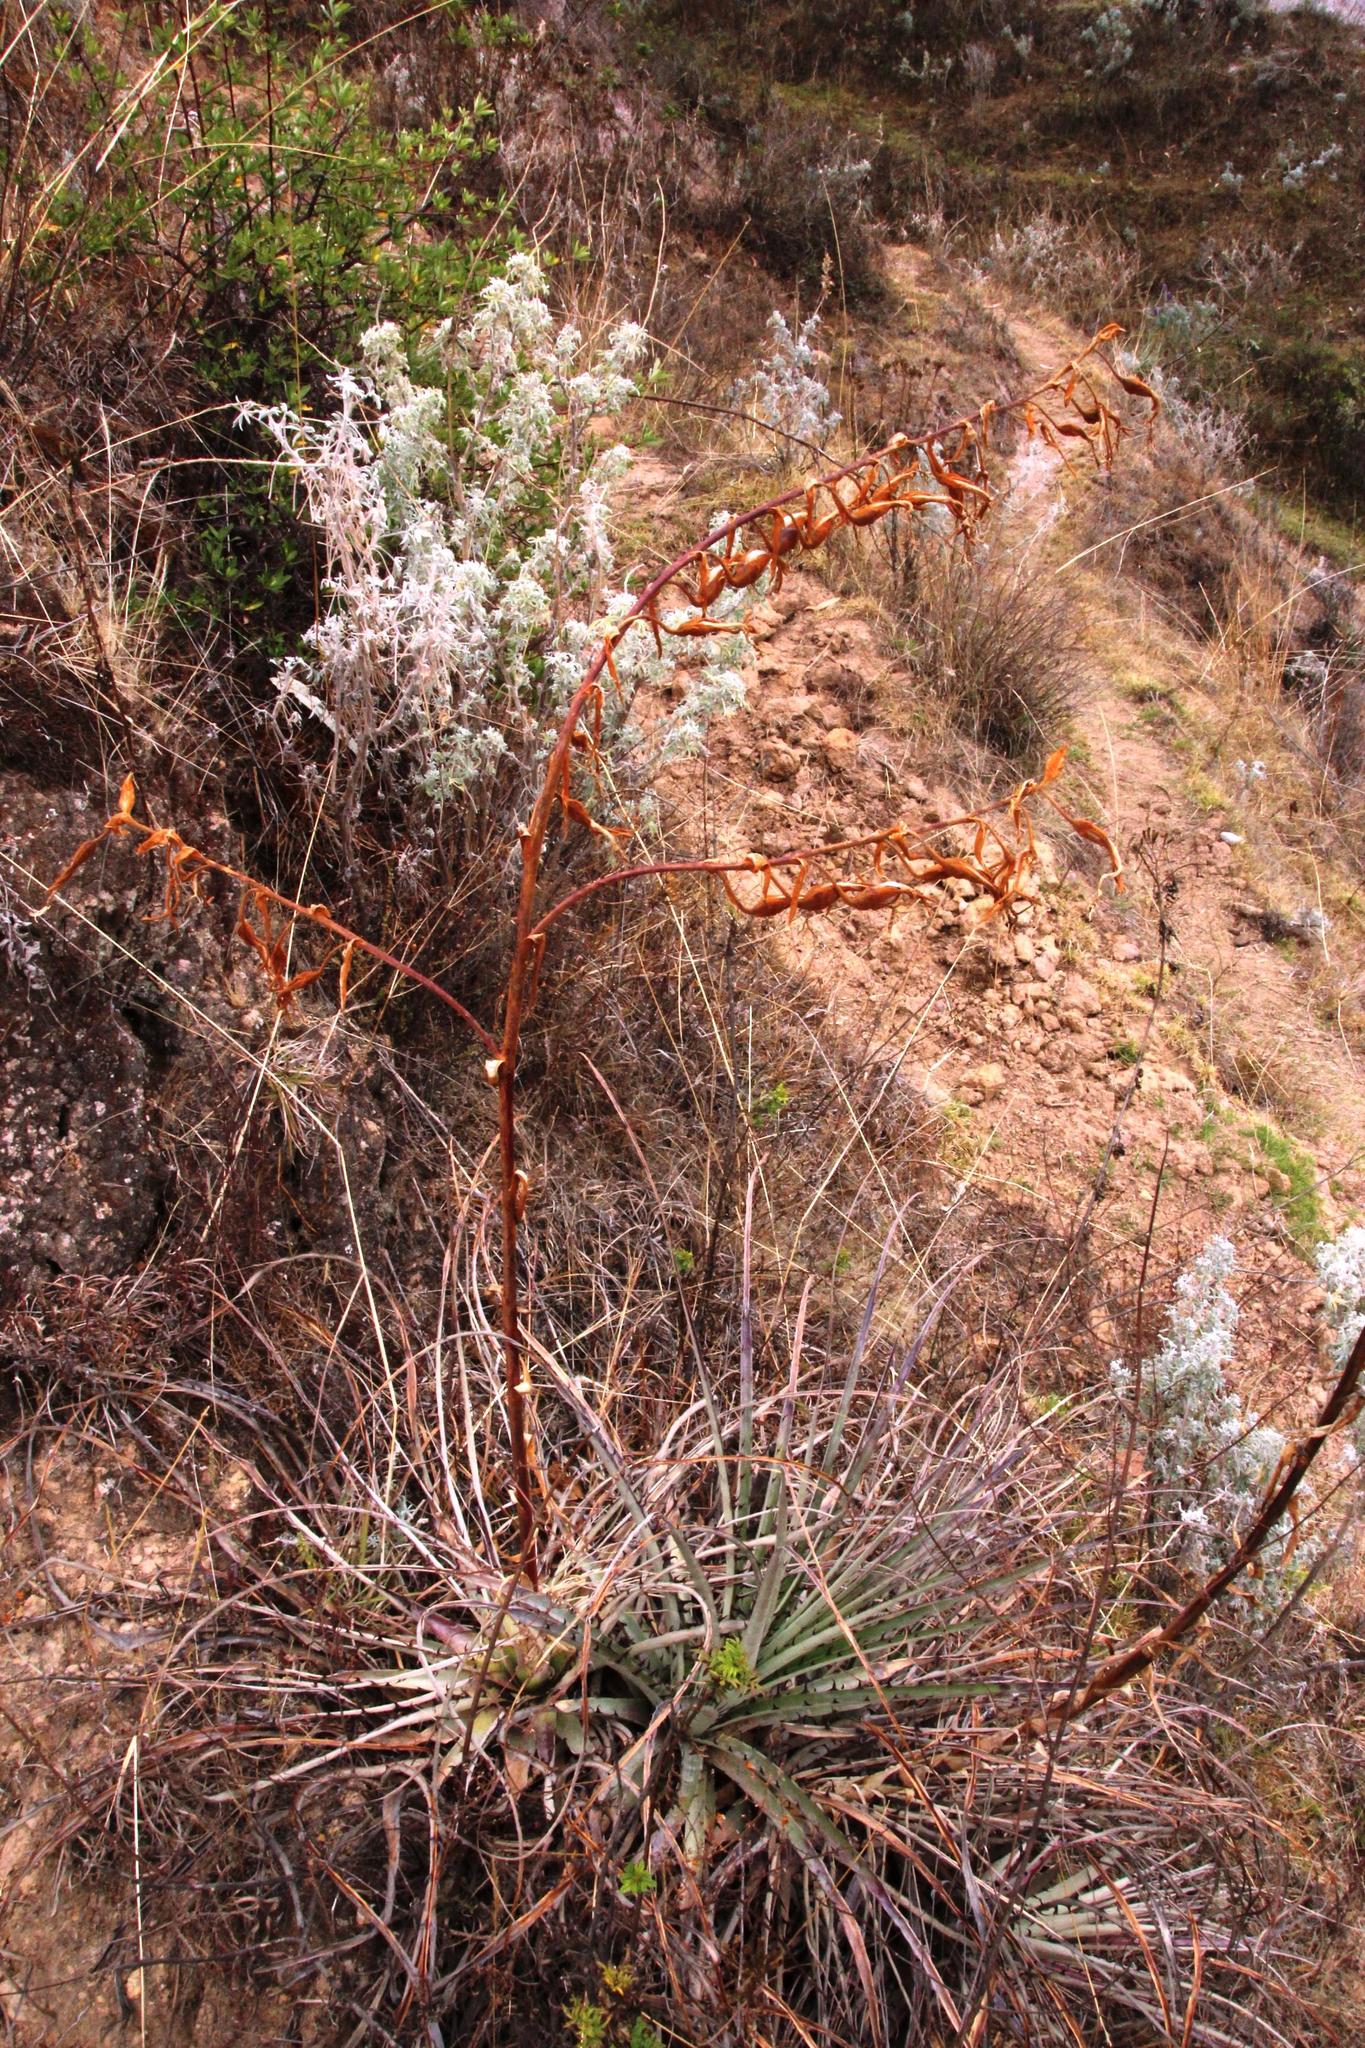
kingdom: Plantae
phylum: Tracheophyta
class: Liliopsida
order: Poales
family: Bromeliaceae
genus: Puya
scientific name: Puya ferruginea
